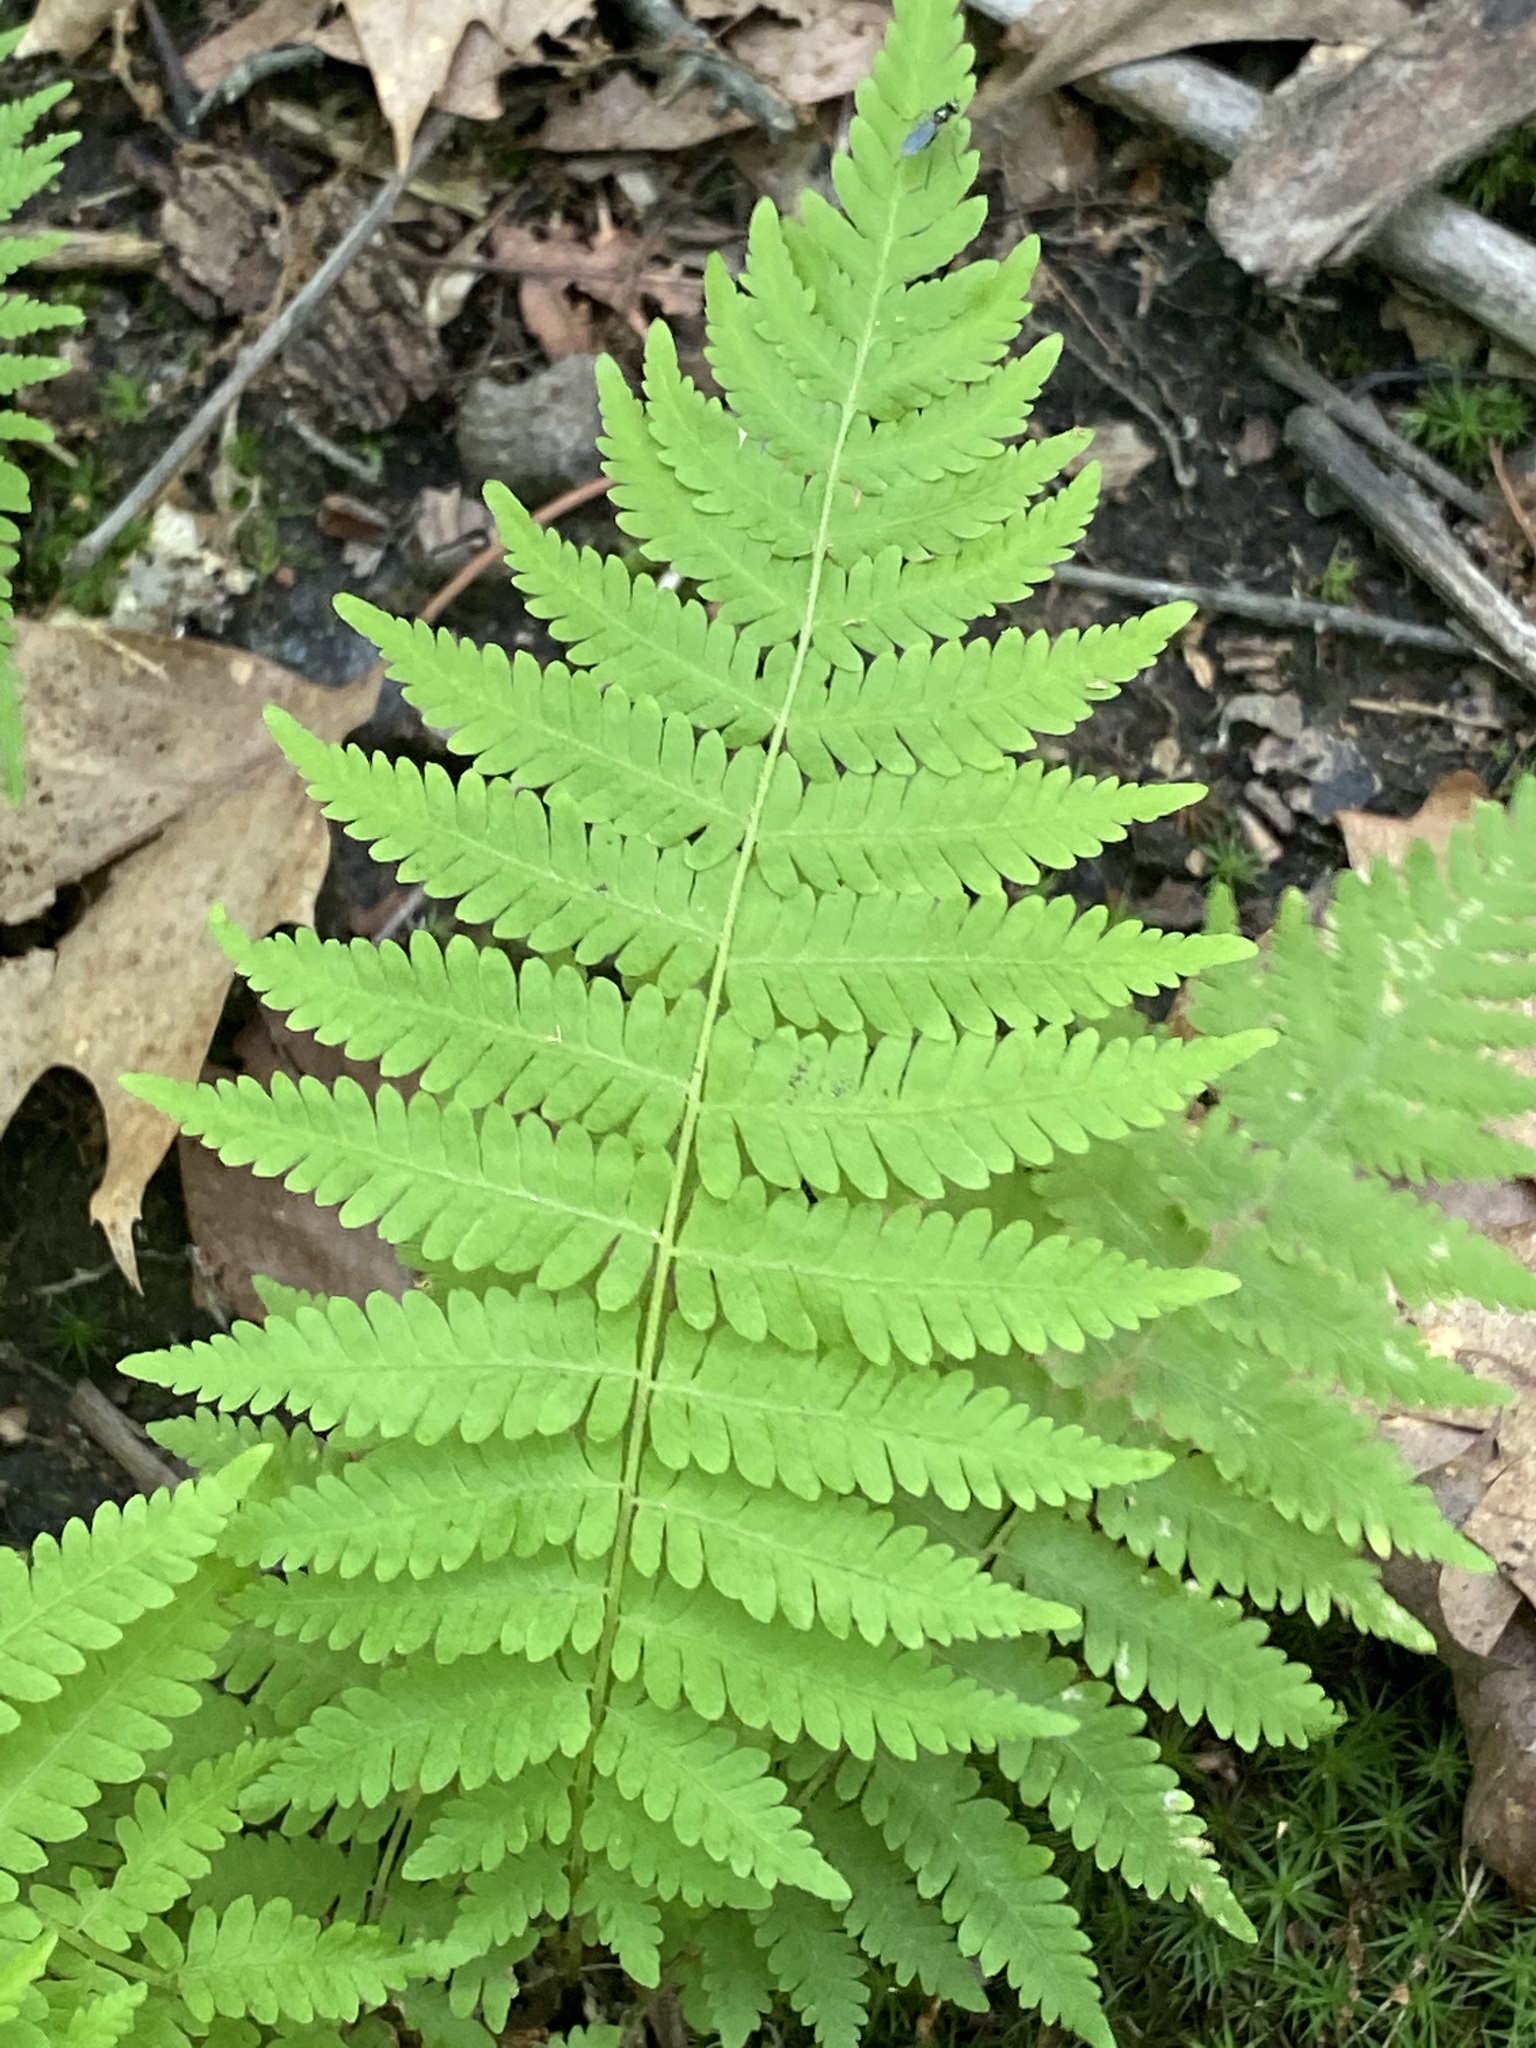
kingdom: Plantae
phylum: Tracheophyta
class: Polypodiopsida
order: Polypodiales
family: Thelypteridaceae
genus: Amauropelta
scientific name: Amauropelta noveboracensis
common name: New york fern
